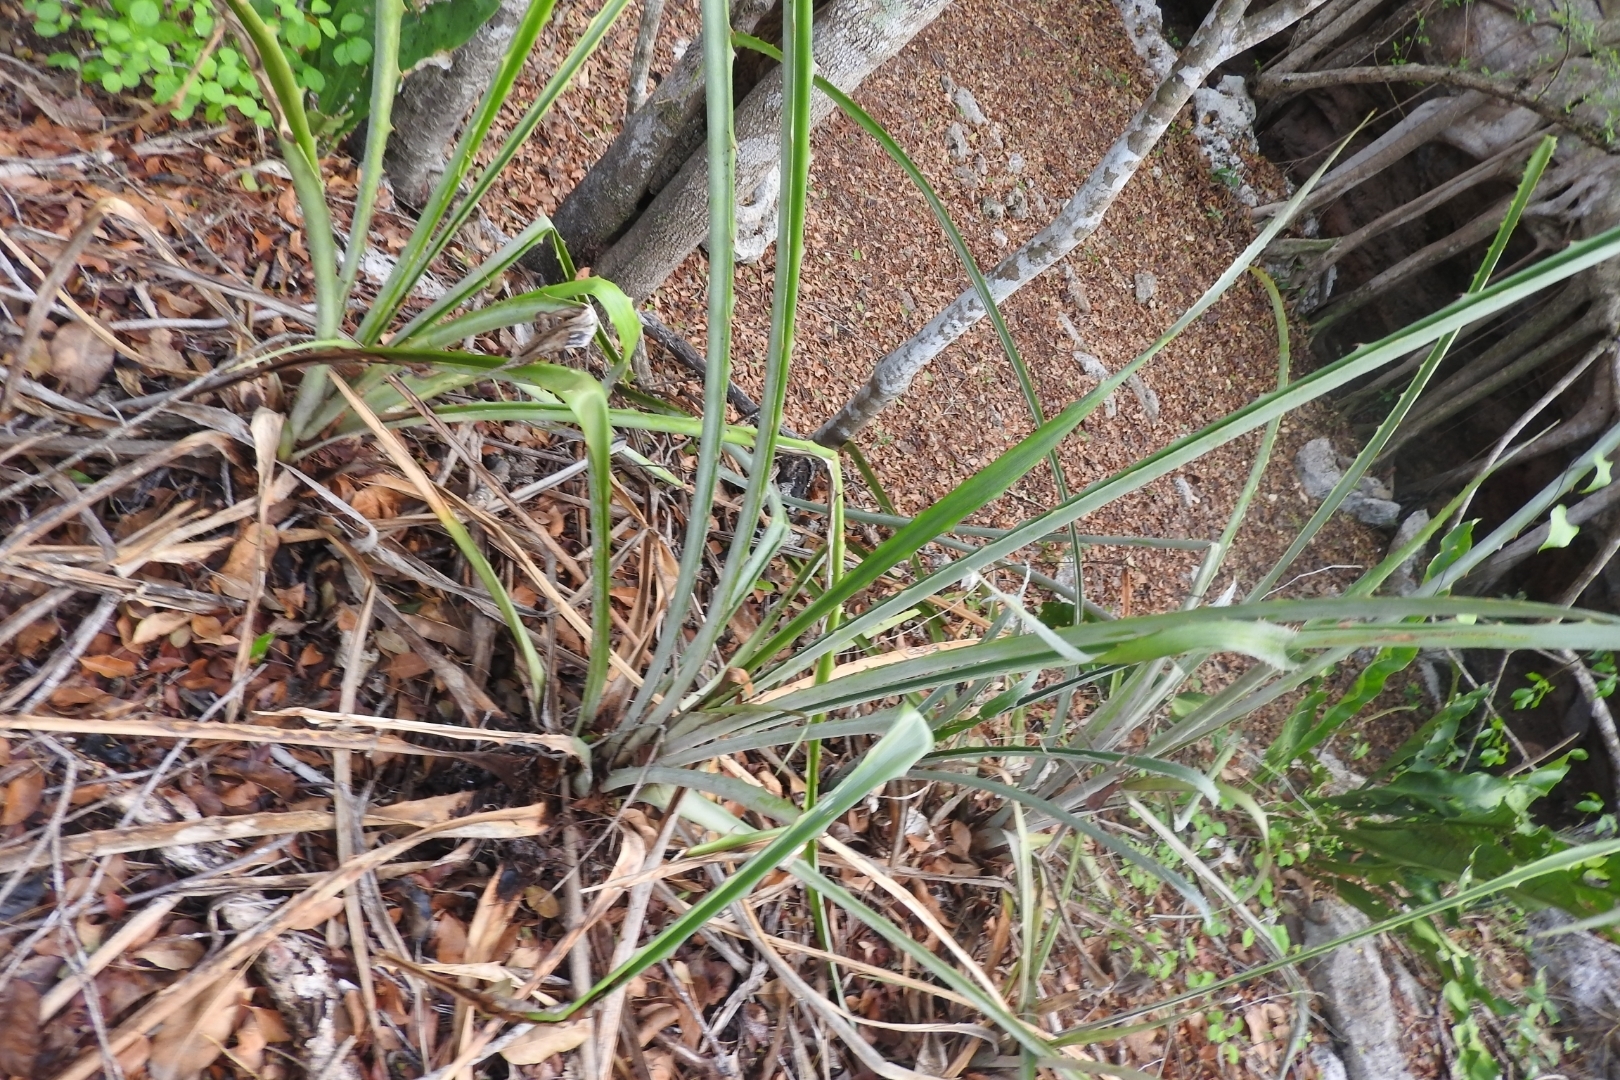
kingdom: Plantae
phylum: Tracheophyta
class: Liliopsida
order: Poales
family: Bromeliaceae
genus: Bromelia
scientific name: Bromelia pinguin
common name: Pinguin
